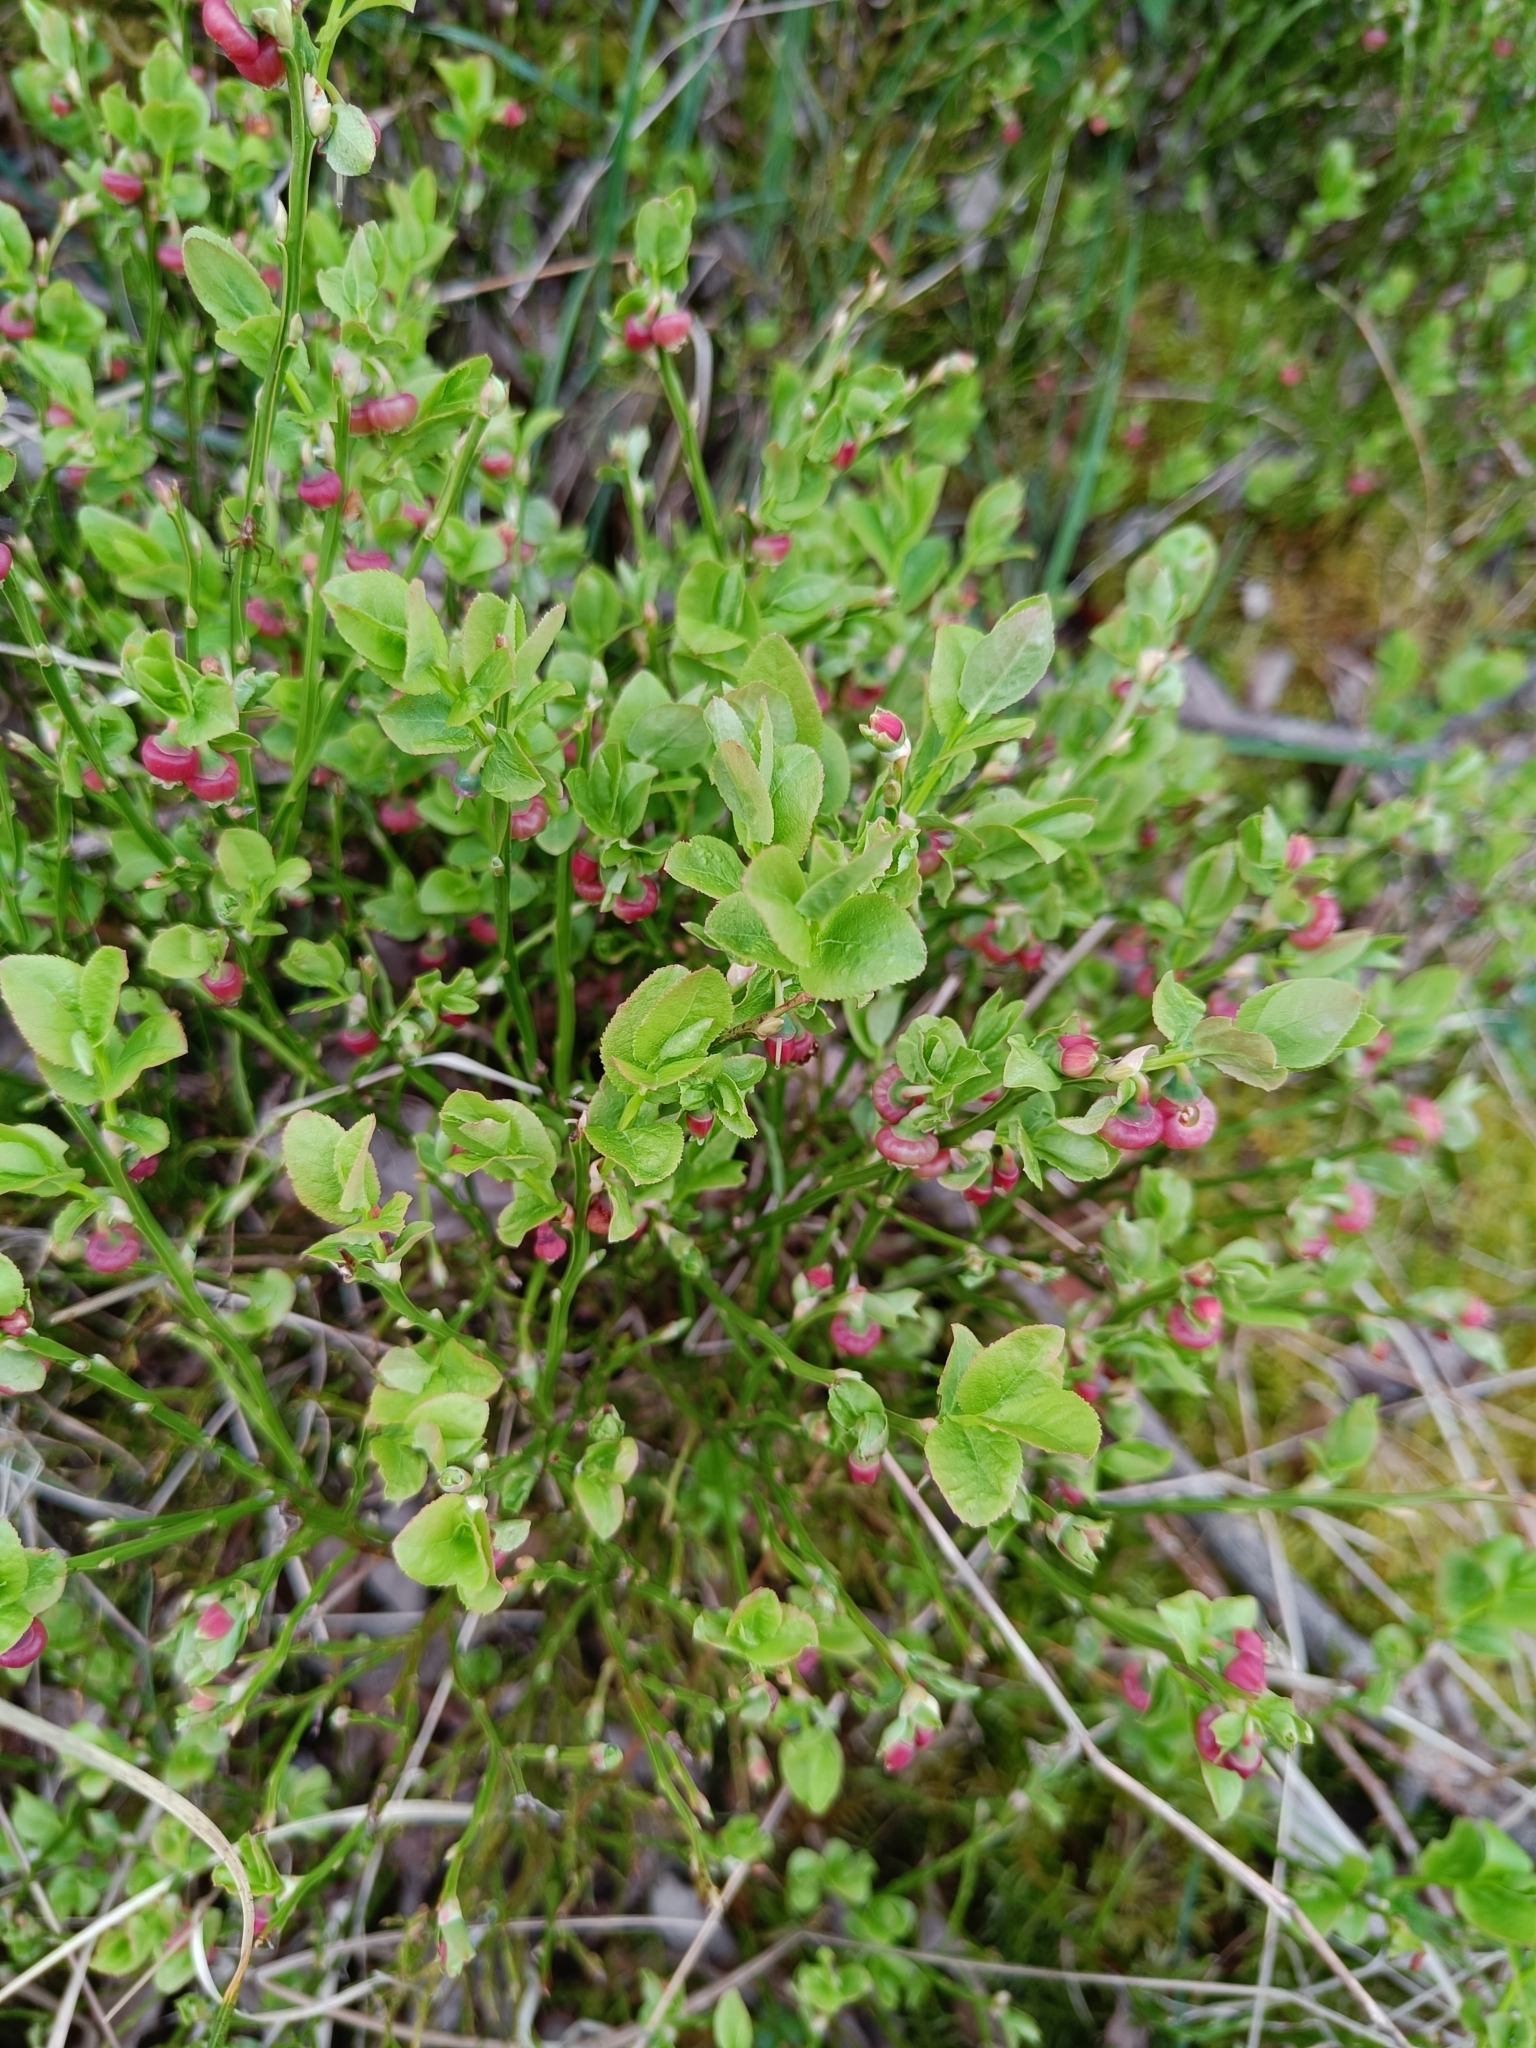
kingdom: Plantae
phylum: Tracheophyta
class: Magnoliopsida
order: Ericales
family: Ericaceae
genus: Vaccinium
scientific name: Vaccinium myrtillus
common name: Bilberry
